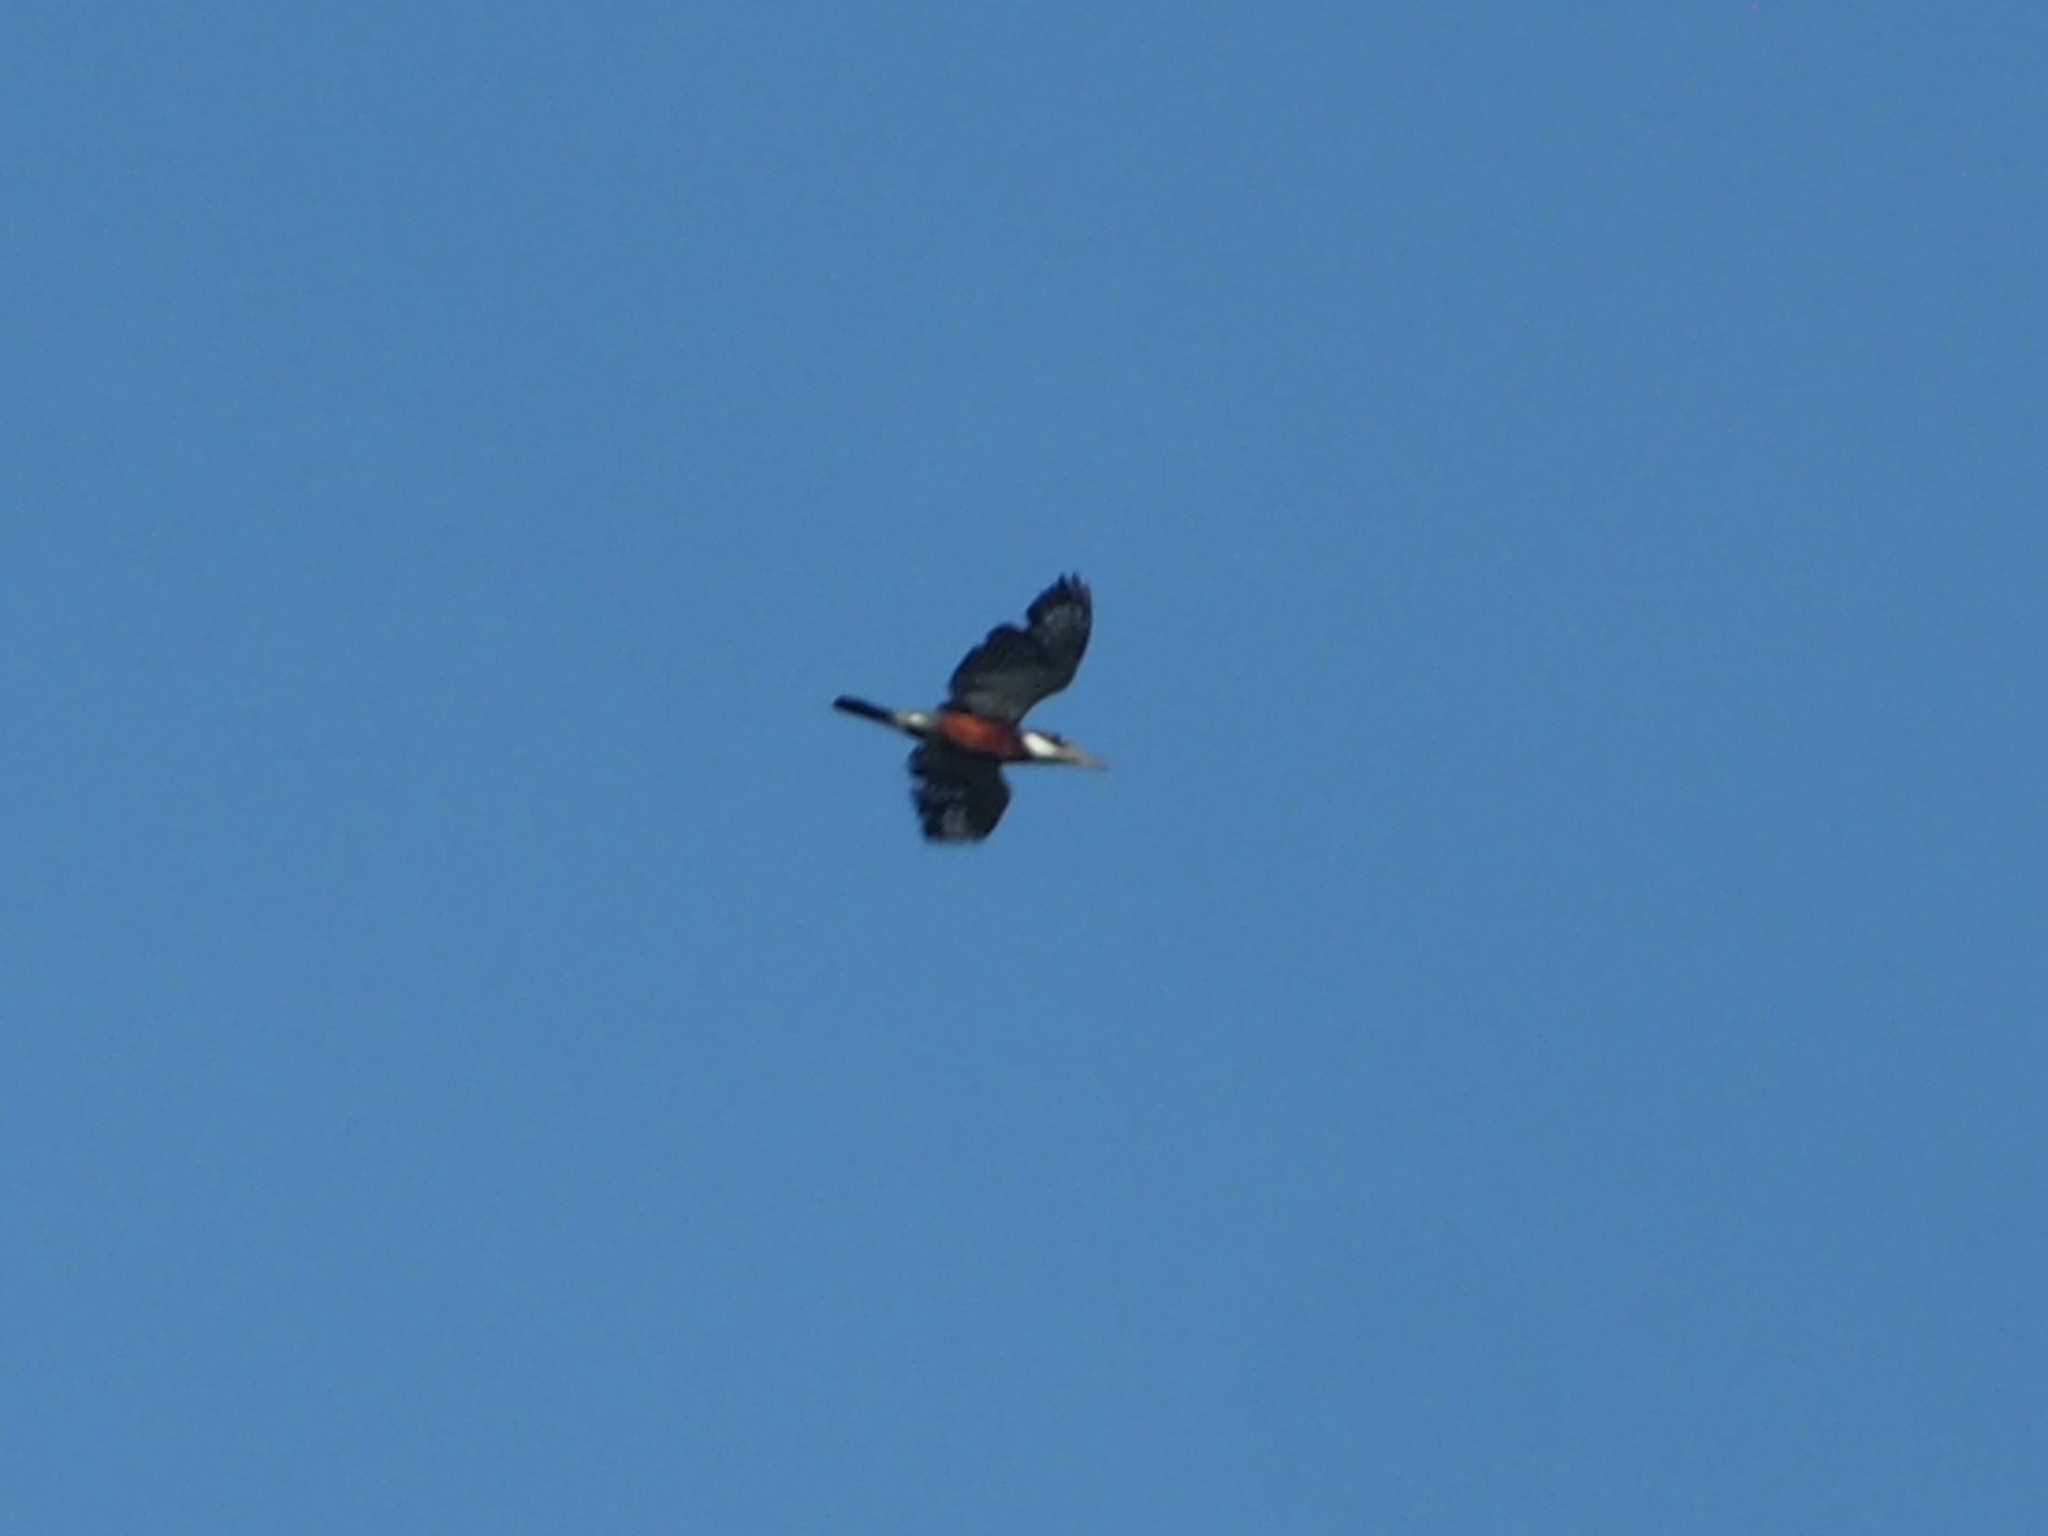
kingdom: Animalia
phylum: Chordata
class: Aves
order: Coraciiformes
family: Alcedinidae
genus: Megaceryle
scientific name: Megaceryle torquata
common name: Ringed kingfisher
